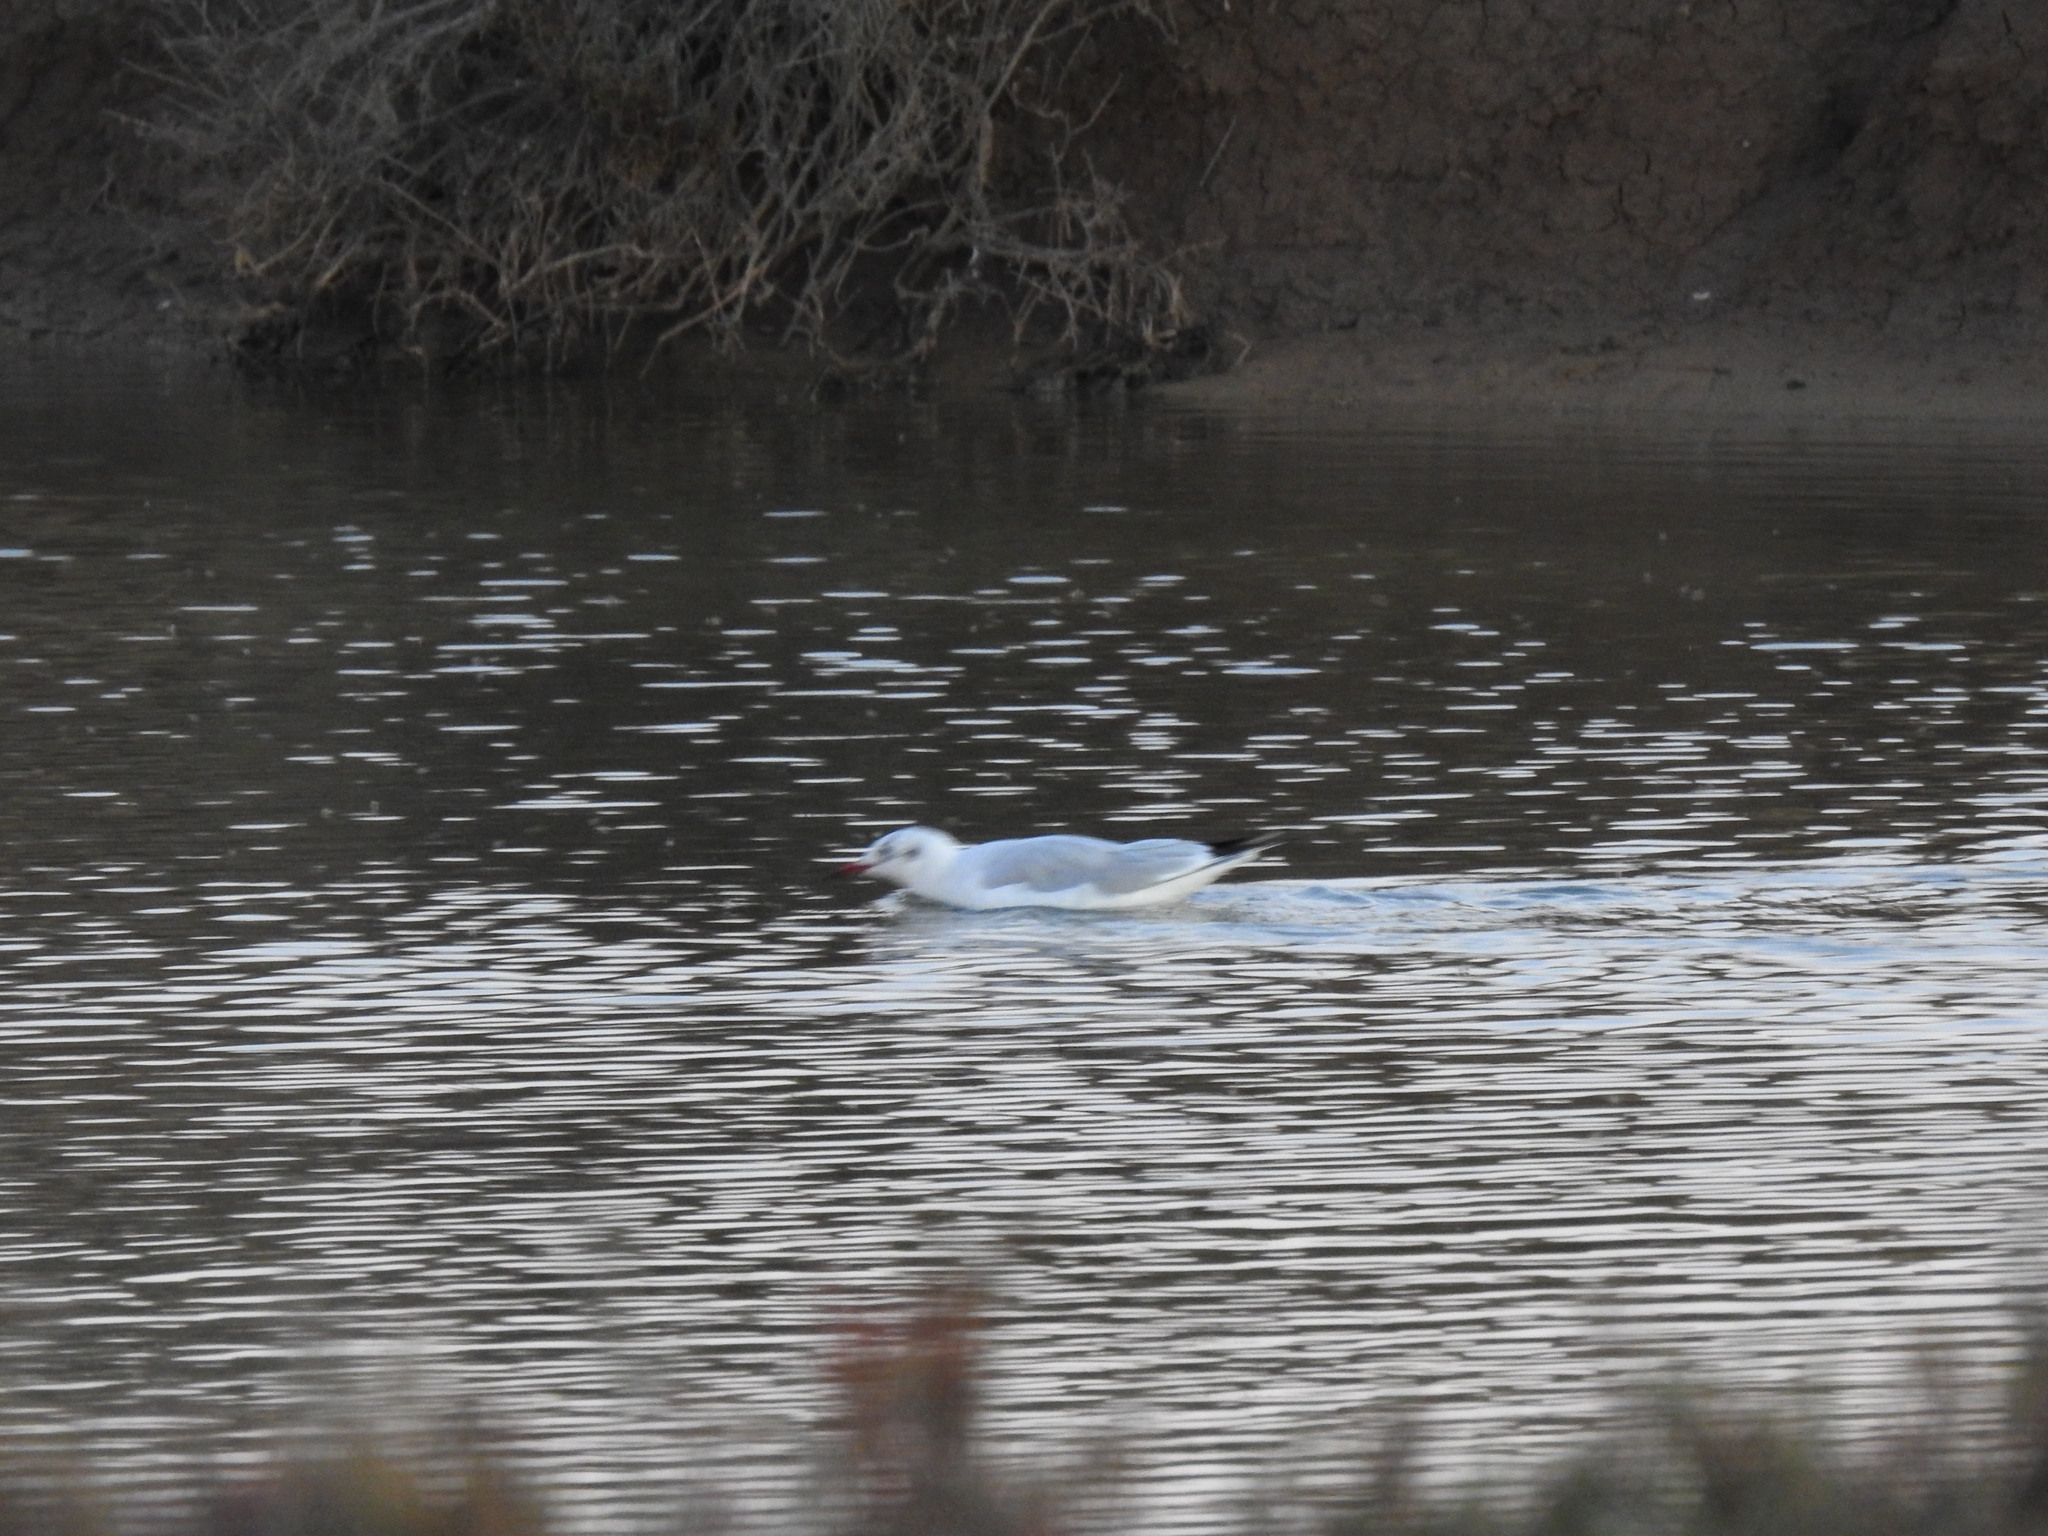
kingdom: Animalia
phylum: Chordata
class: Aves
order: Charadriiformes
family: Laridae
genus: Chroicocephalus
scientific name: Chroicocephalus ridibundus
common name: Black-headed gull
